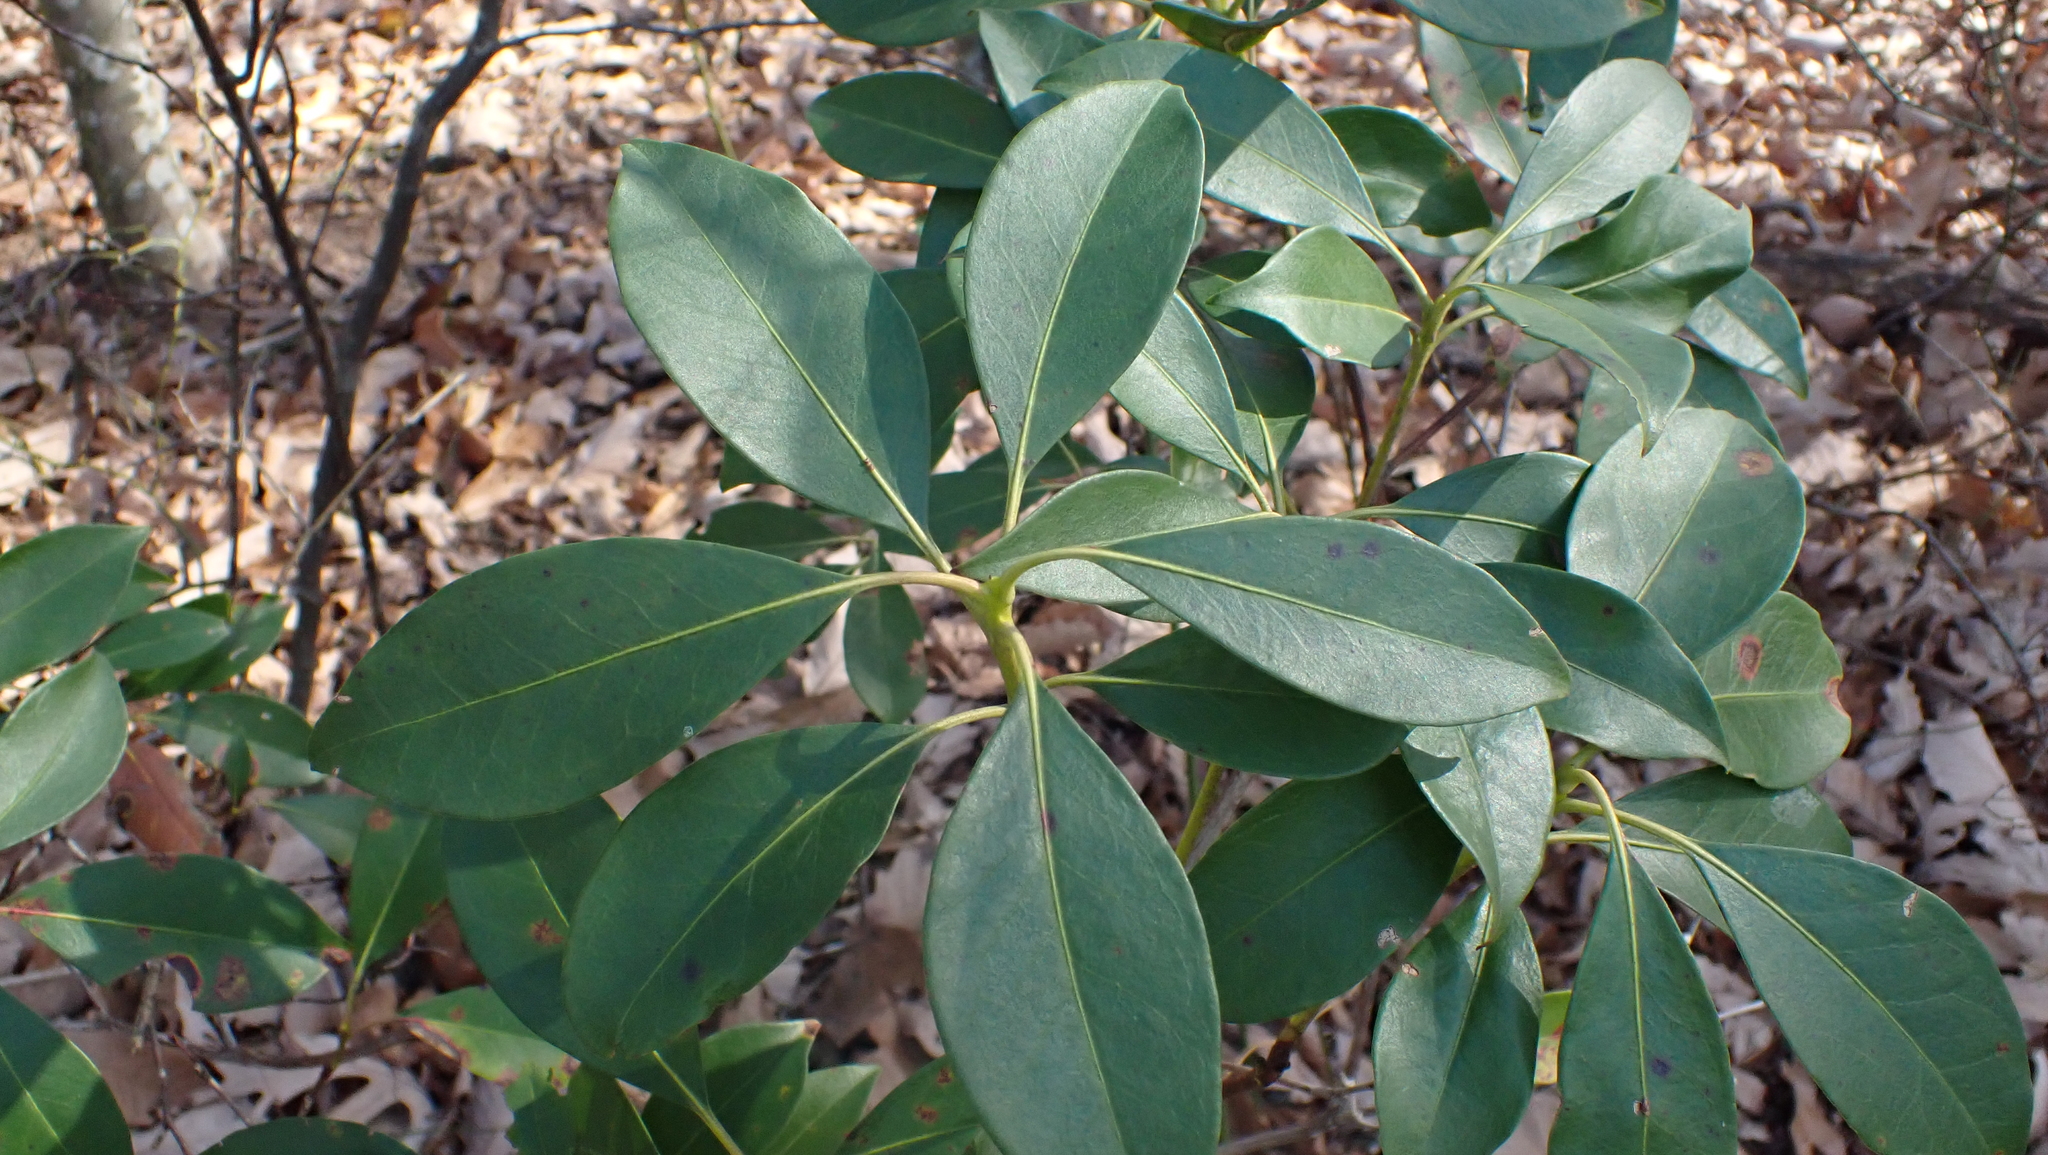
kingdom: Plantae
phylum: Tracheophyta
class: Magnoliopsida
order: Ericales
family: Ericaceae
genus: Kalmia
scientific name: Kalmia latifolia
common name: Mountain-laurel
